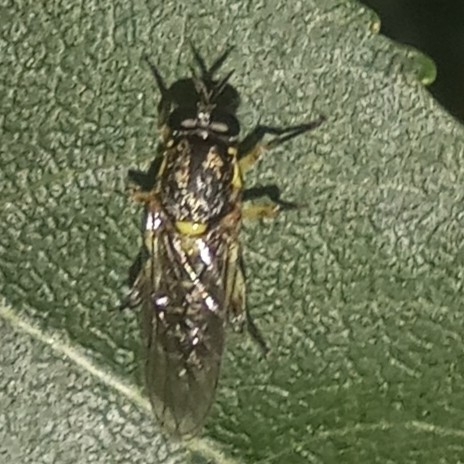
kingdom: Animalia
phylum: Arthropoda
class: Insecta
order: Diptera
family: Xylomyidae
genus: Solva
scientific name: Solva marginata
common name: Drab wood-soldierfly
